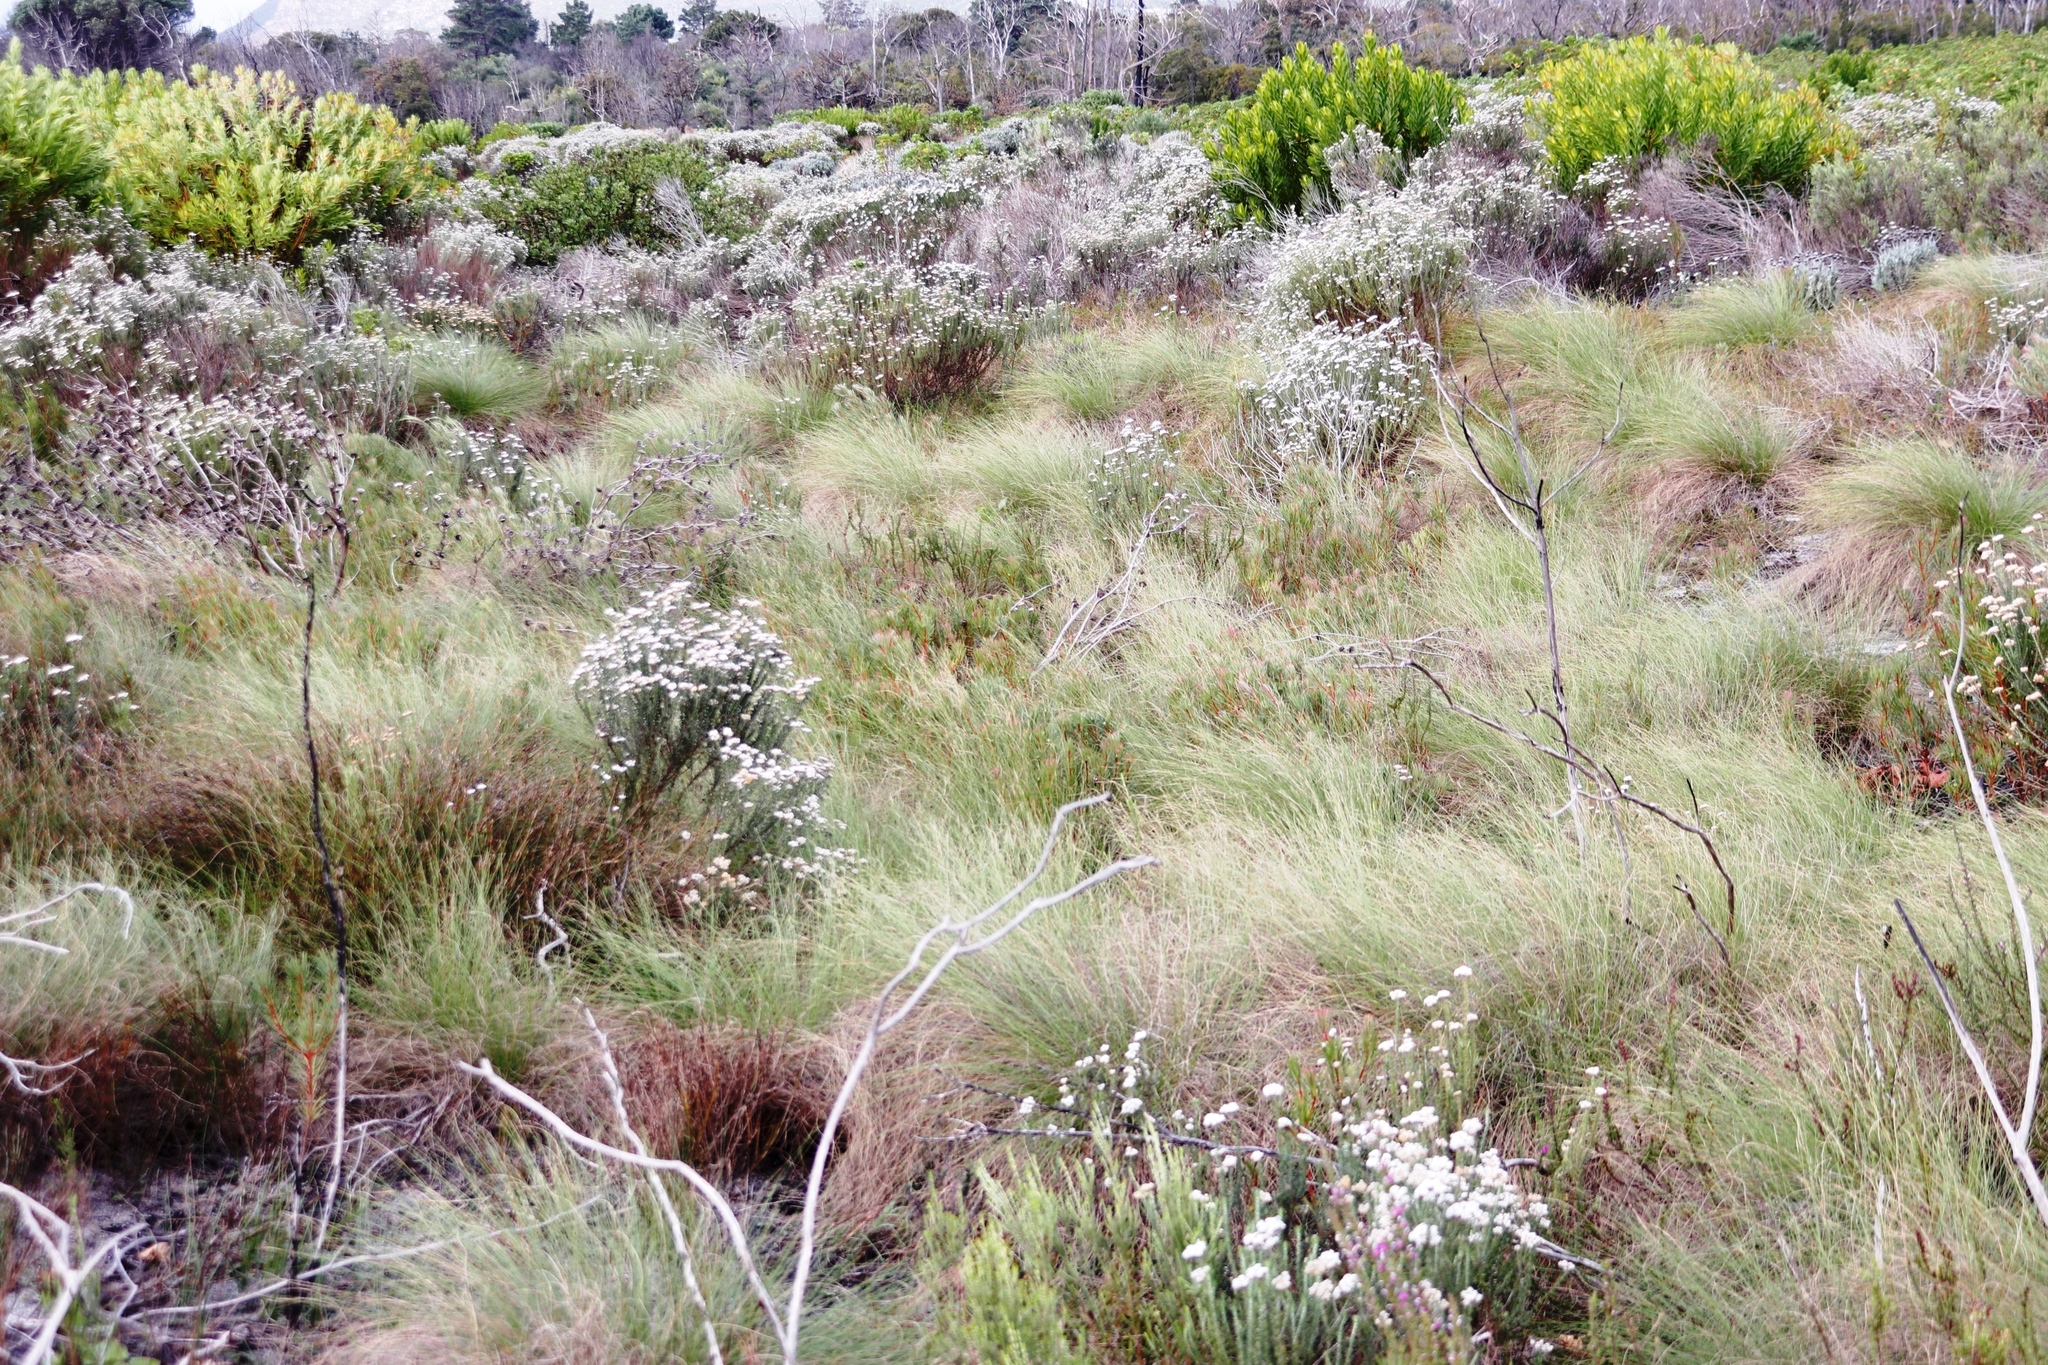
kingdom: Plantae
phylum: Tracheophyta
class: Magnoliopsida
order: Proteales
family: Proteaceae
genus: Protea
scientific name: Protea scolymocephala
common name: Thistle sugarbush
